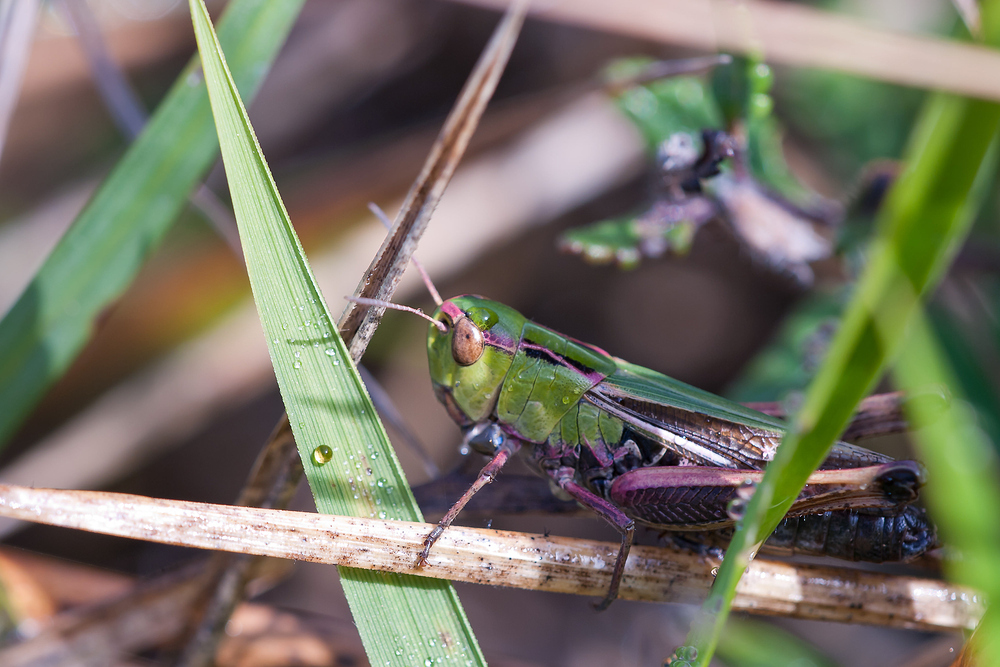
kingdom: Animalia
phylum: Arthropoda
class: Insecta
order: Orthoptera
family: Acrididae
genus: Stenobothrus
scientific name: Stenobothrus lineatus
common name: Stripe-winged grasshopper
